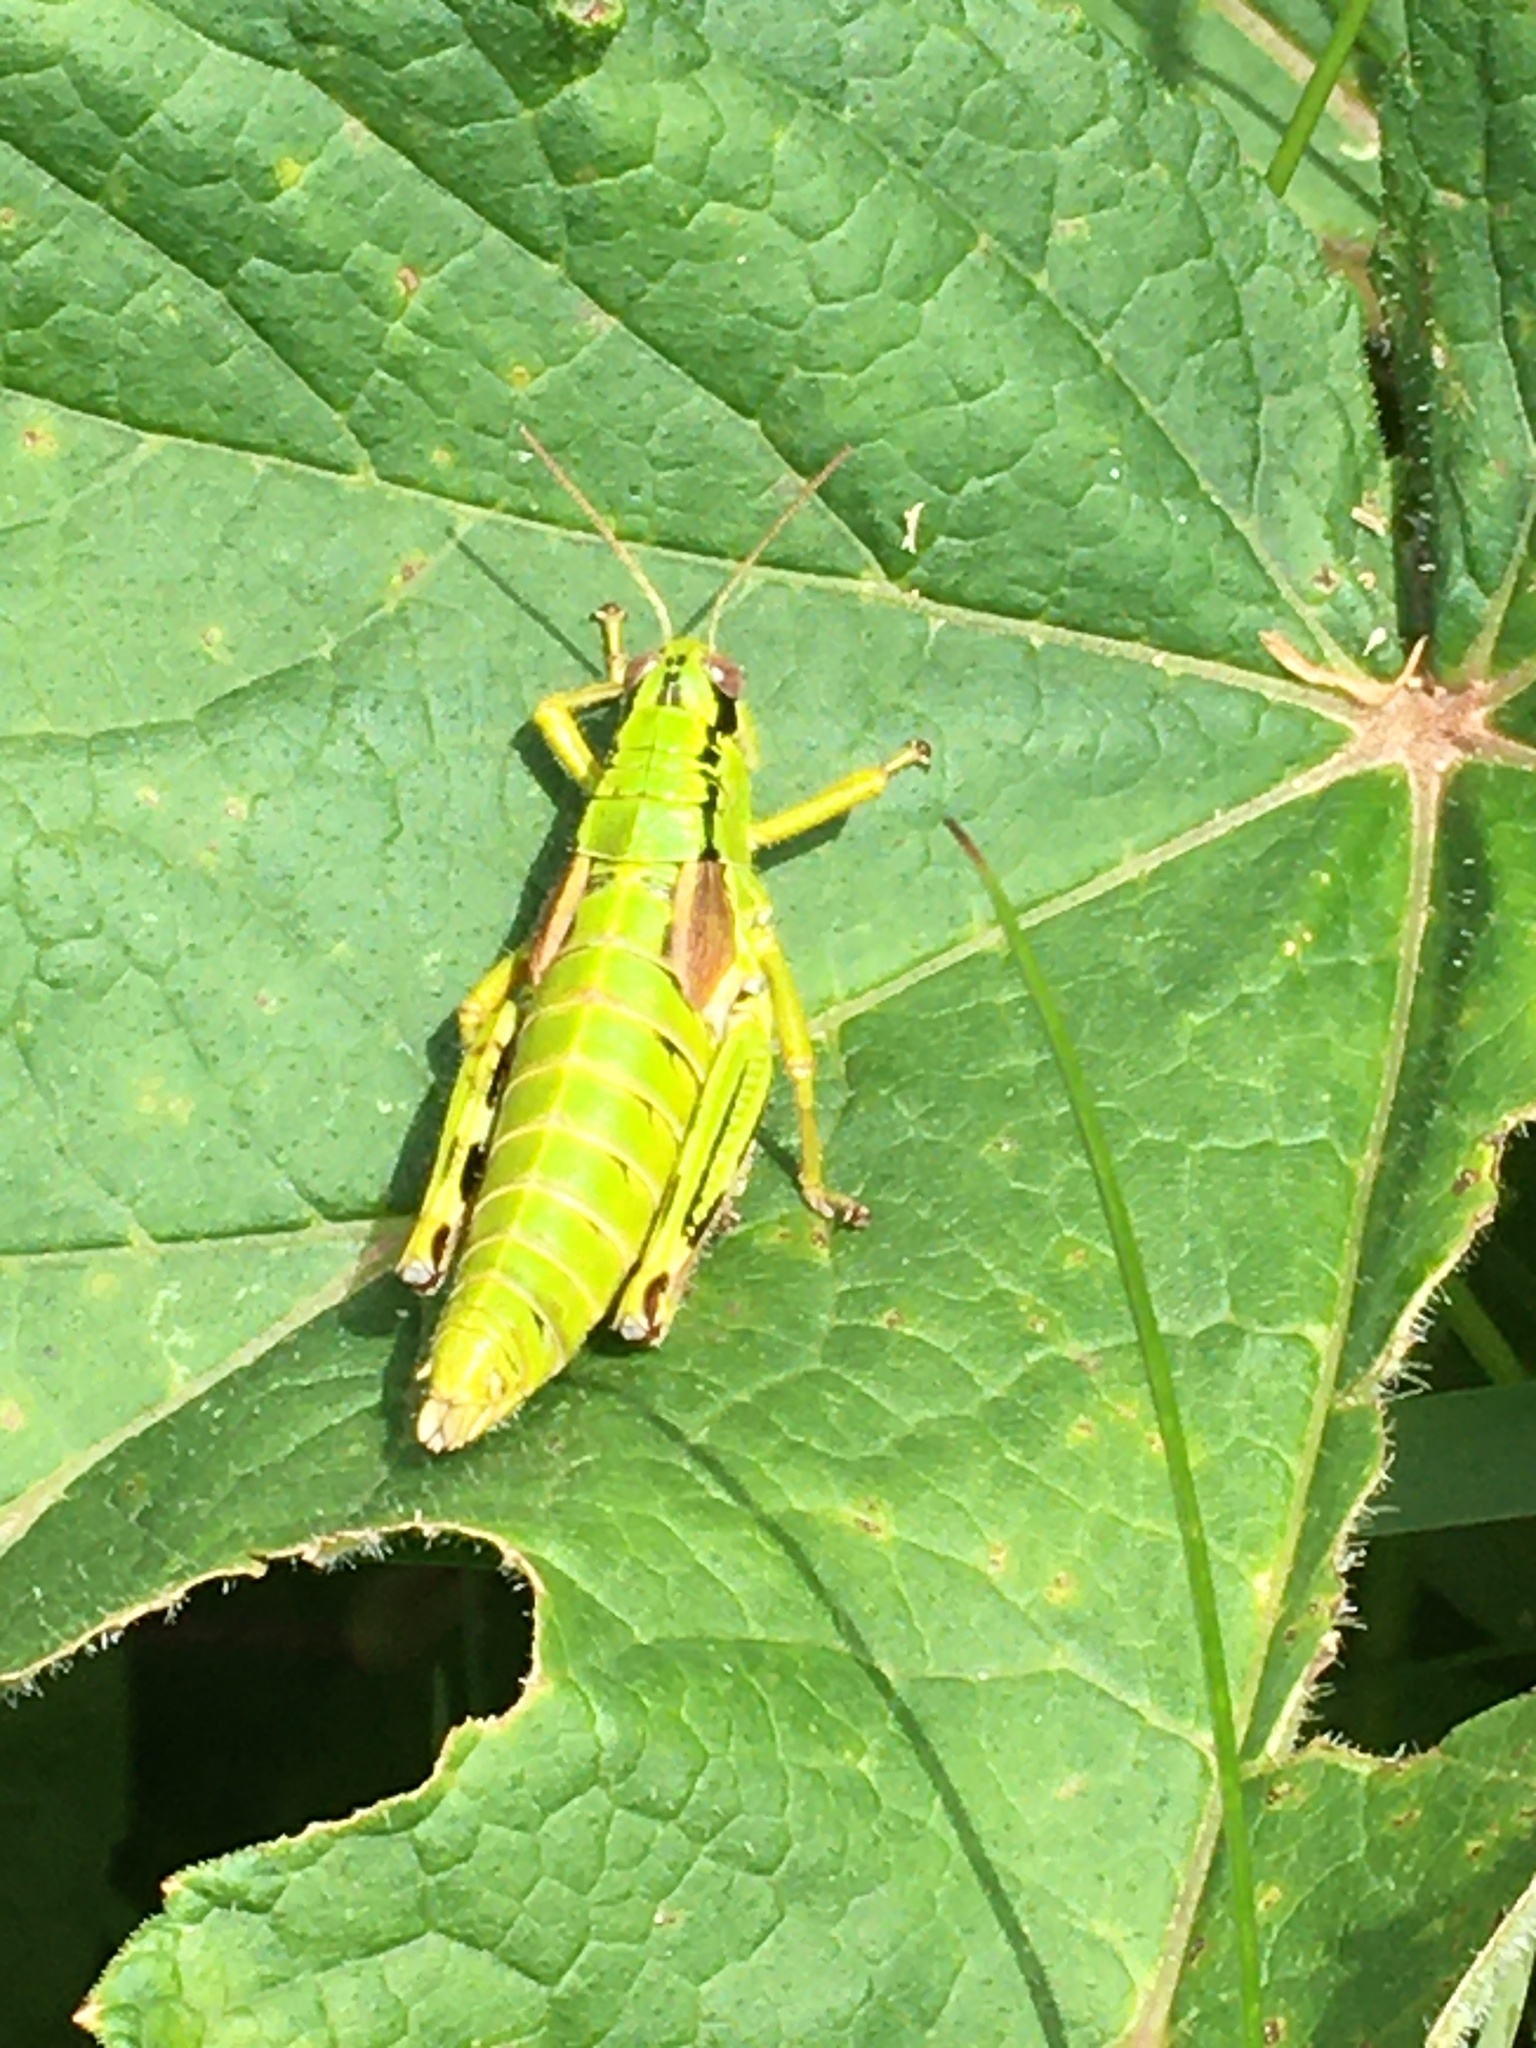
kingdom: Animalia
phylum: Arthropoda
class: Insecta
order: Orthoptera
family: Acrididae
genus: Miramella
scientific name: Miramella alpina
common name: Green mountain grasshopper
